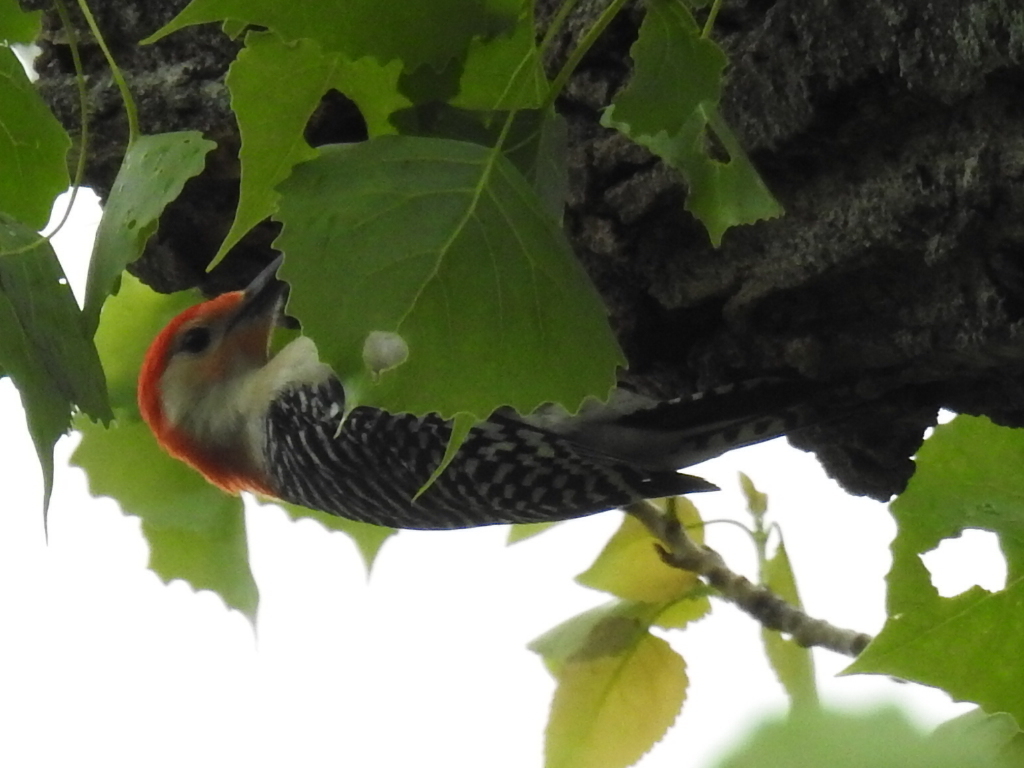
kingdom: Animalia
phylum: Chordata
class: Aves
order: Piciformes
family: Picidae
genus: Melanerpes
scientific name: Melanerpes carolinus
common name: Red-bellied woodpecker
